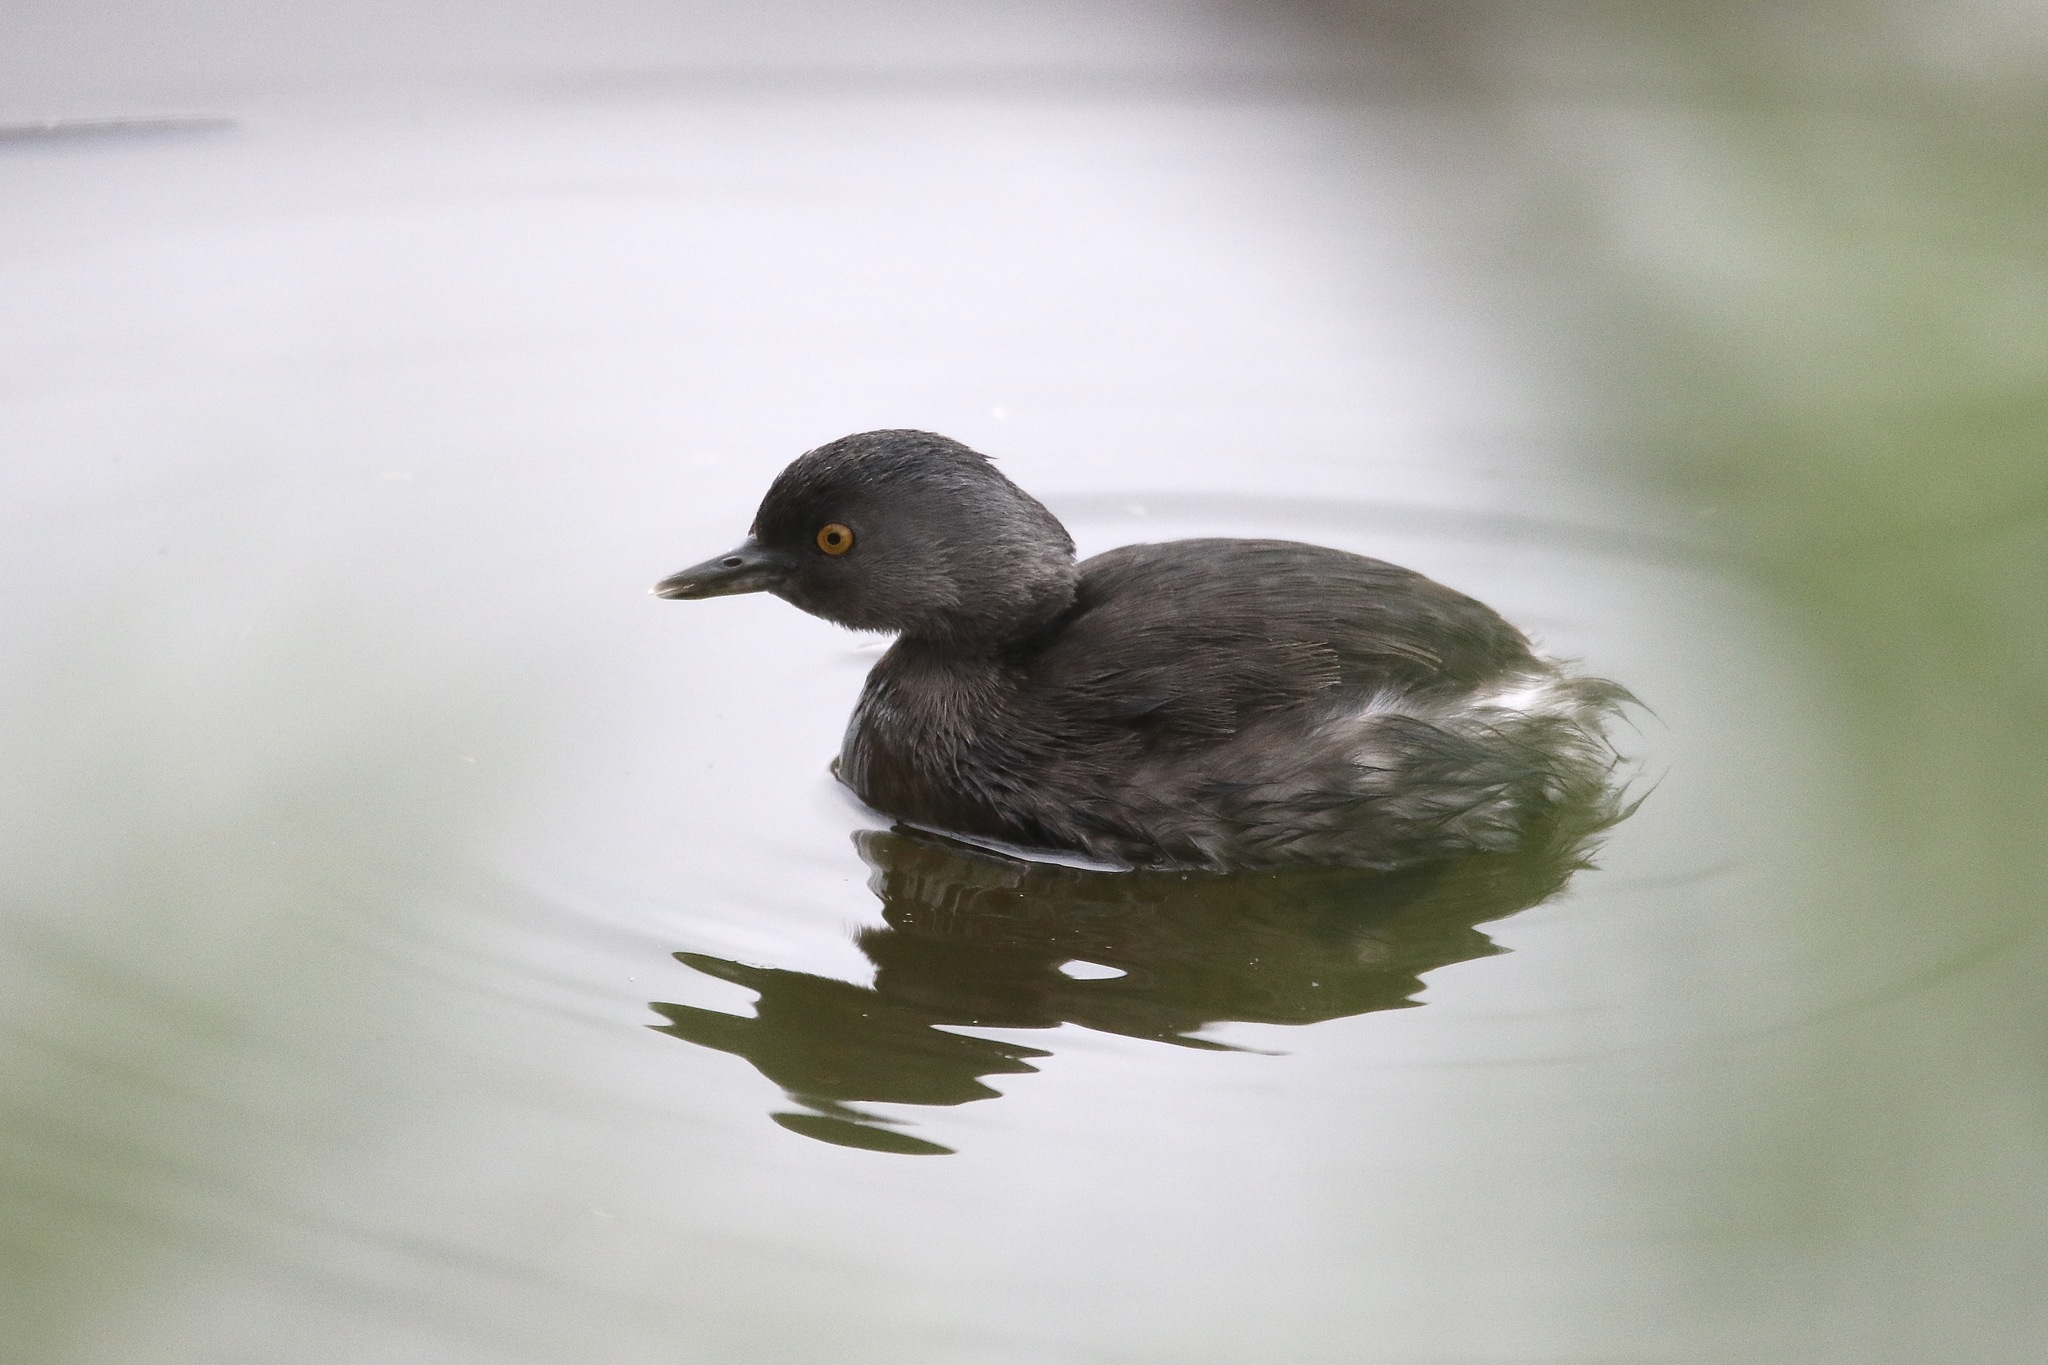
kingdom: Animalia
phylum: Chordata
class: Aves
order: Podicipediformes
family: Podicipedidae
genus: Tachybaptus
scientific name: Tachybaptus dominicus
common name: Least grebe
